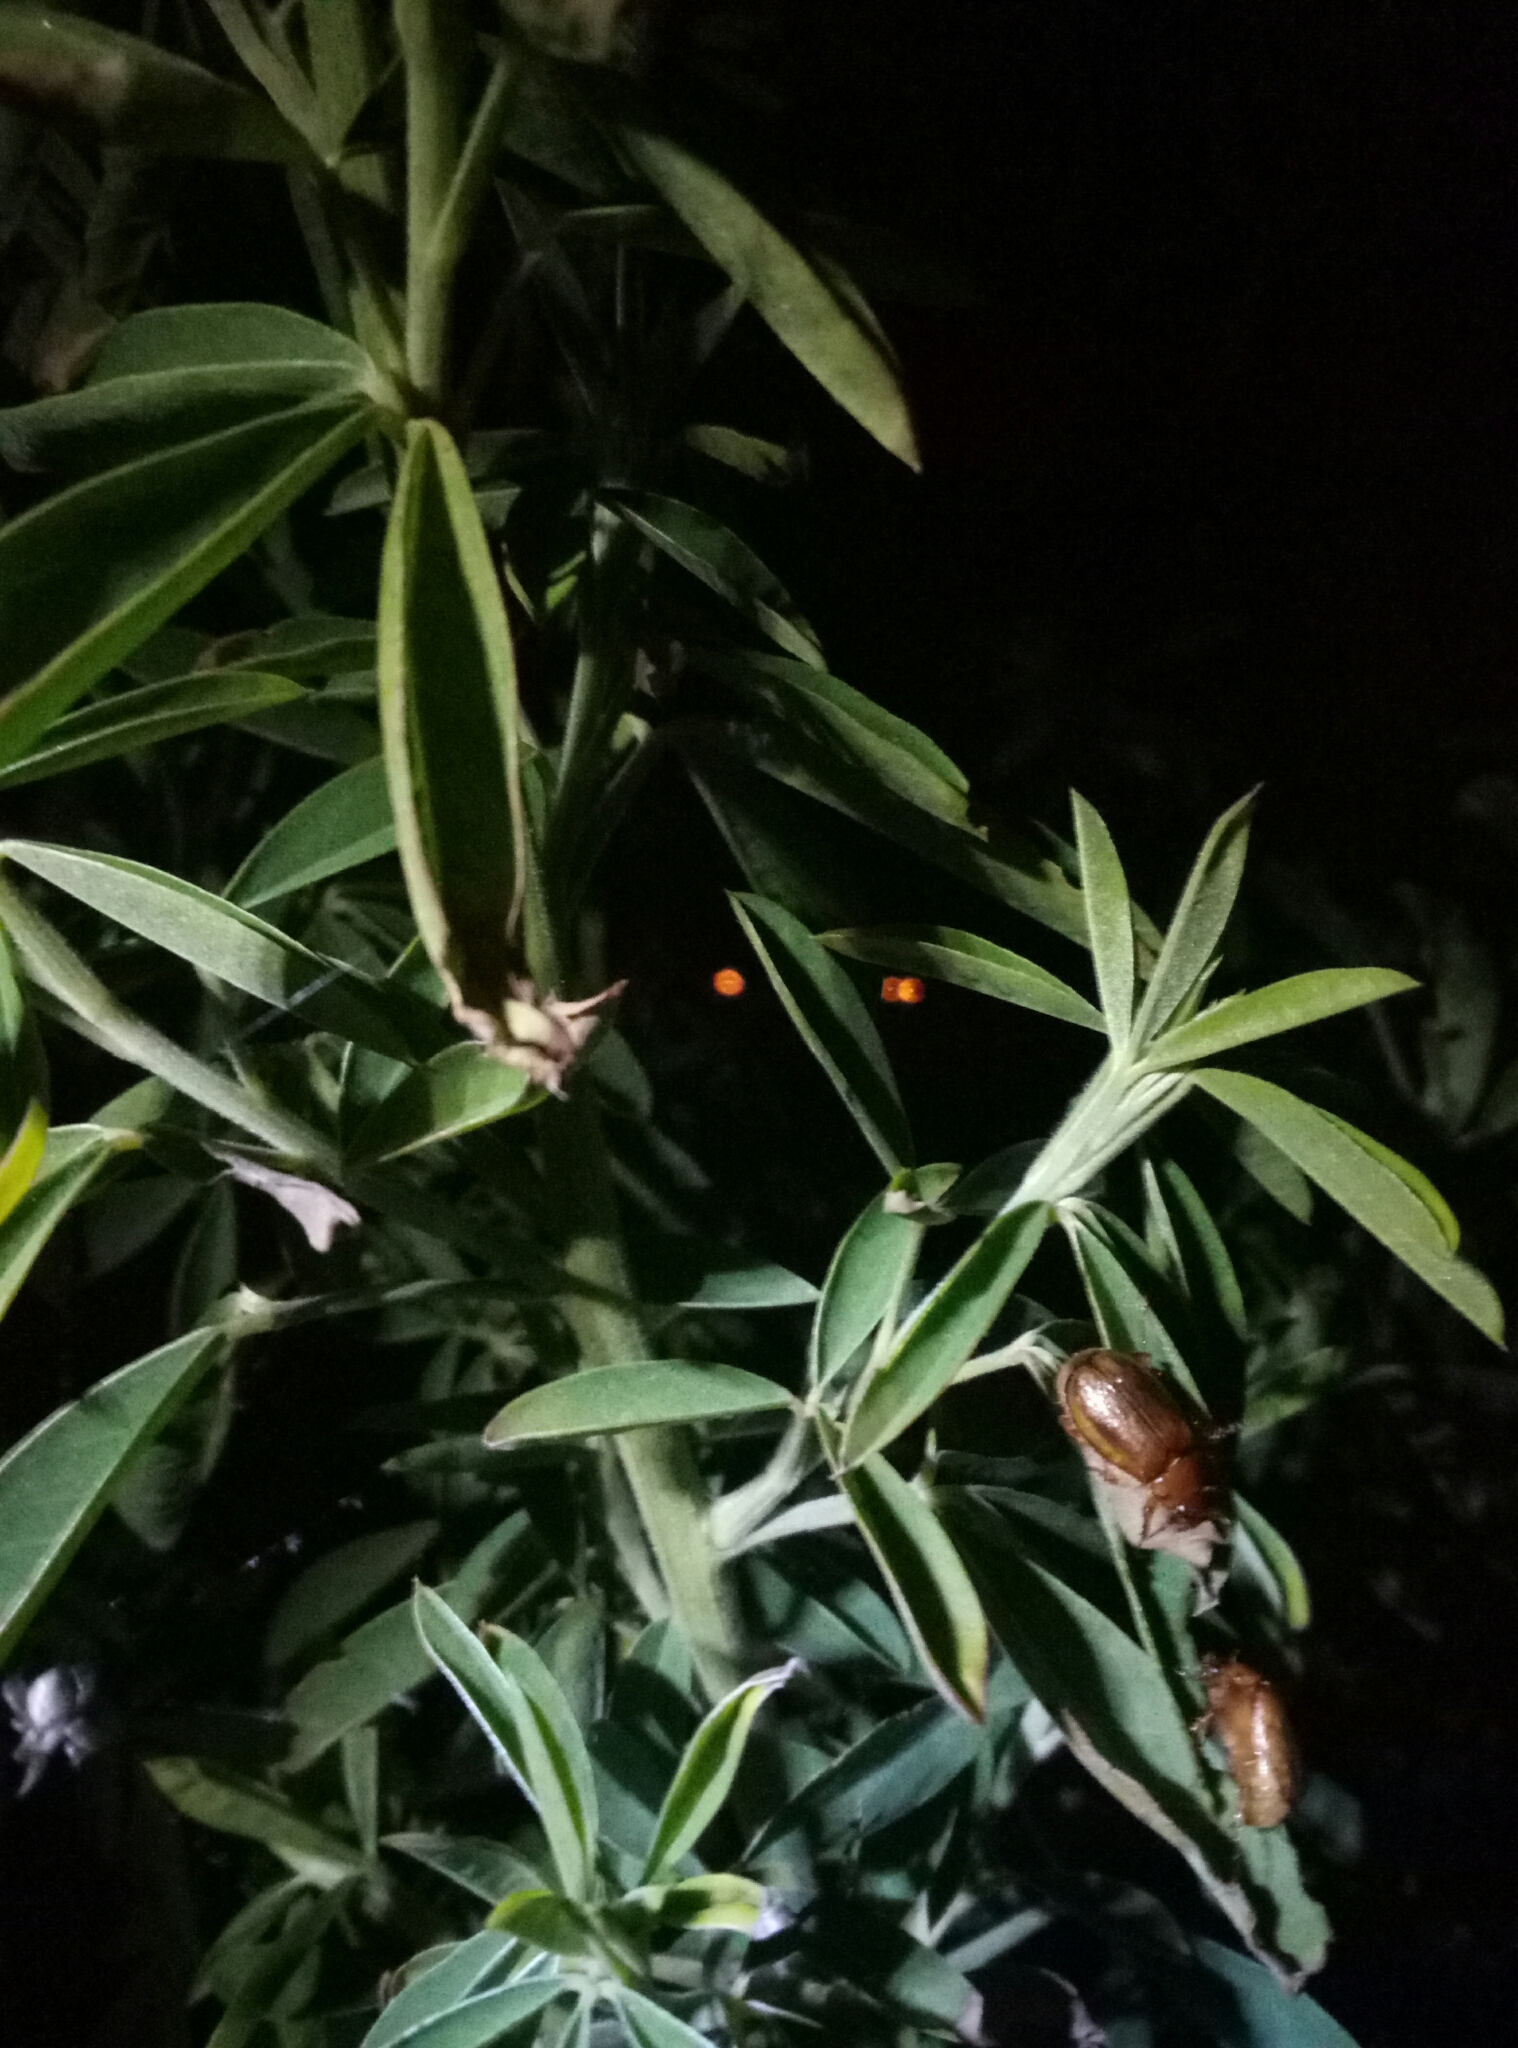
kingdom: Animalia
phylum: Arthropoda
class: Insecta
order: Coleoptera
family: Scarabaeidae
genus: Costelytra
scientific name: Costelytra zealandica
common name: New zealand grass grub
